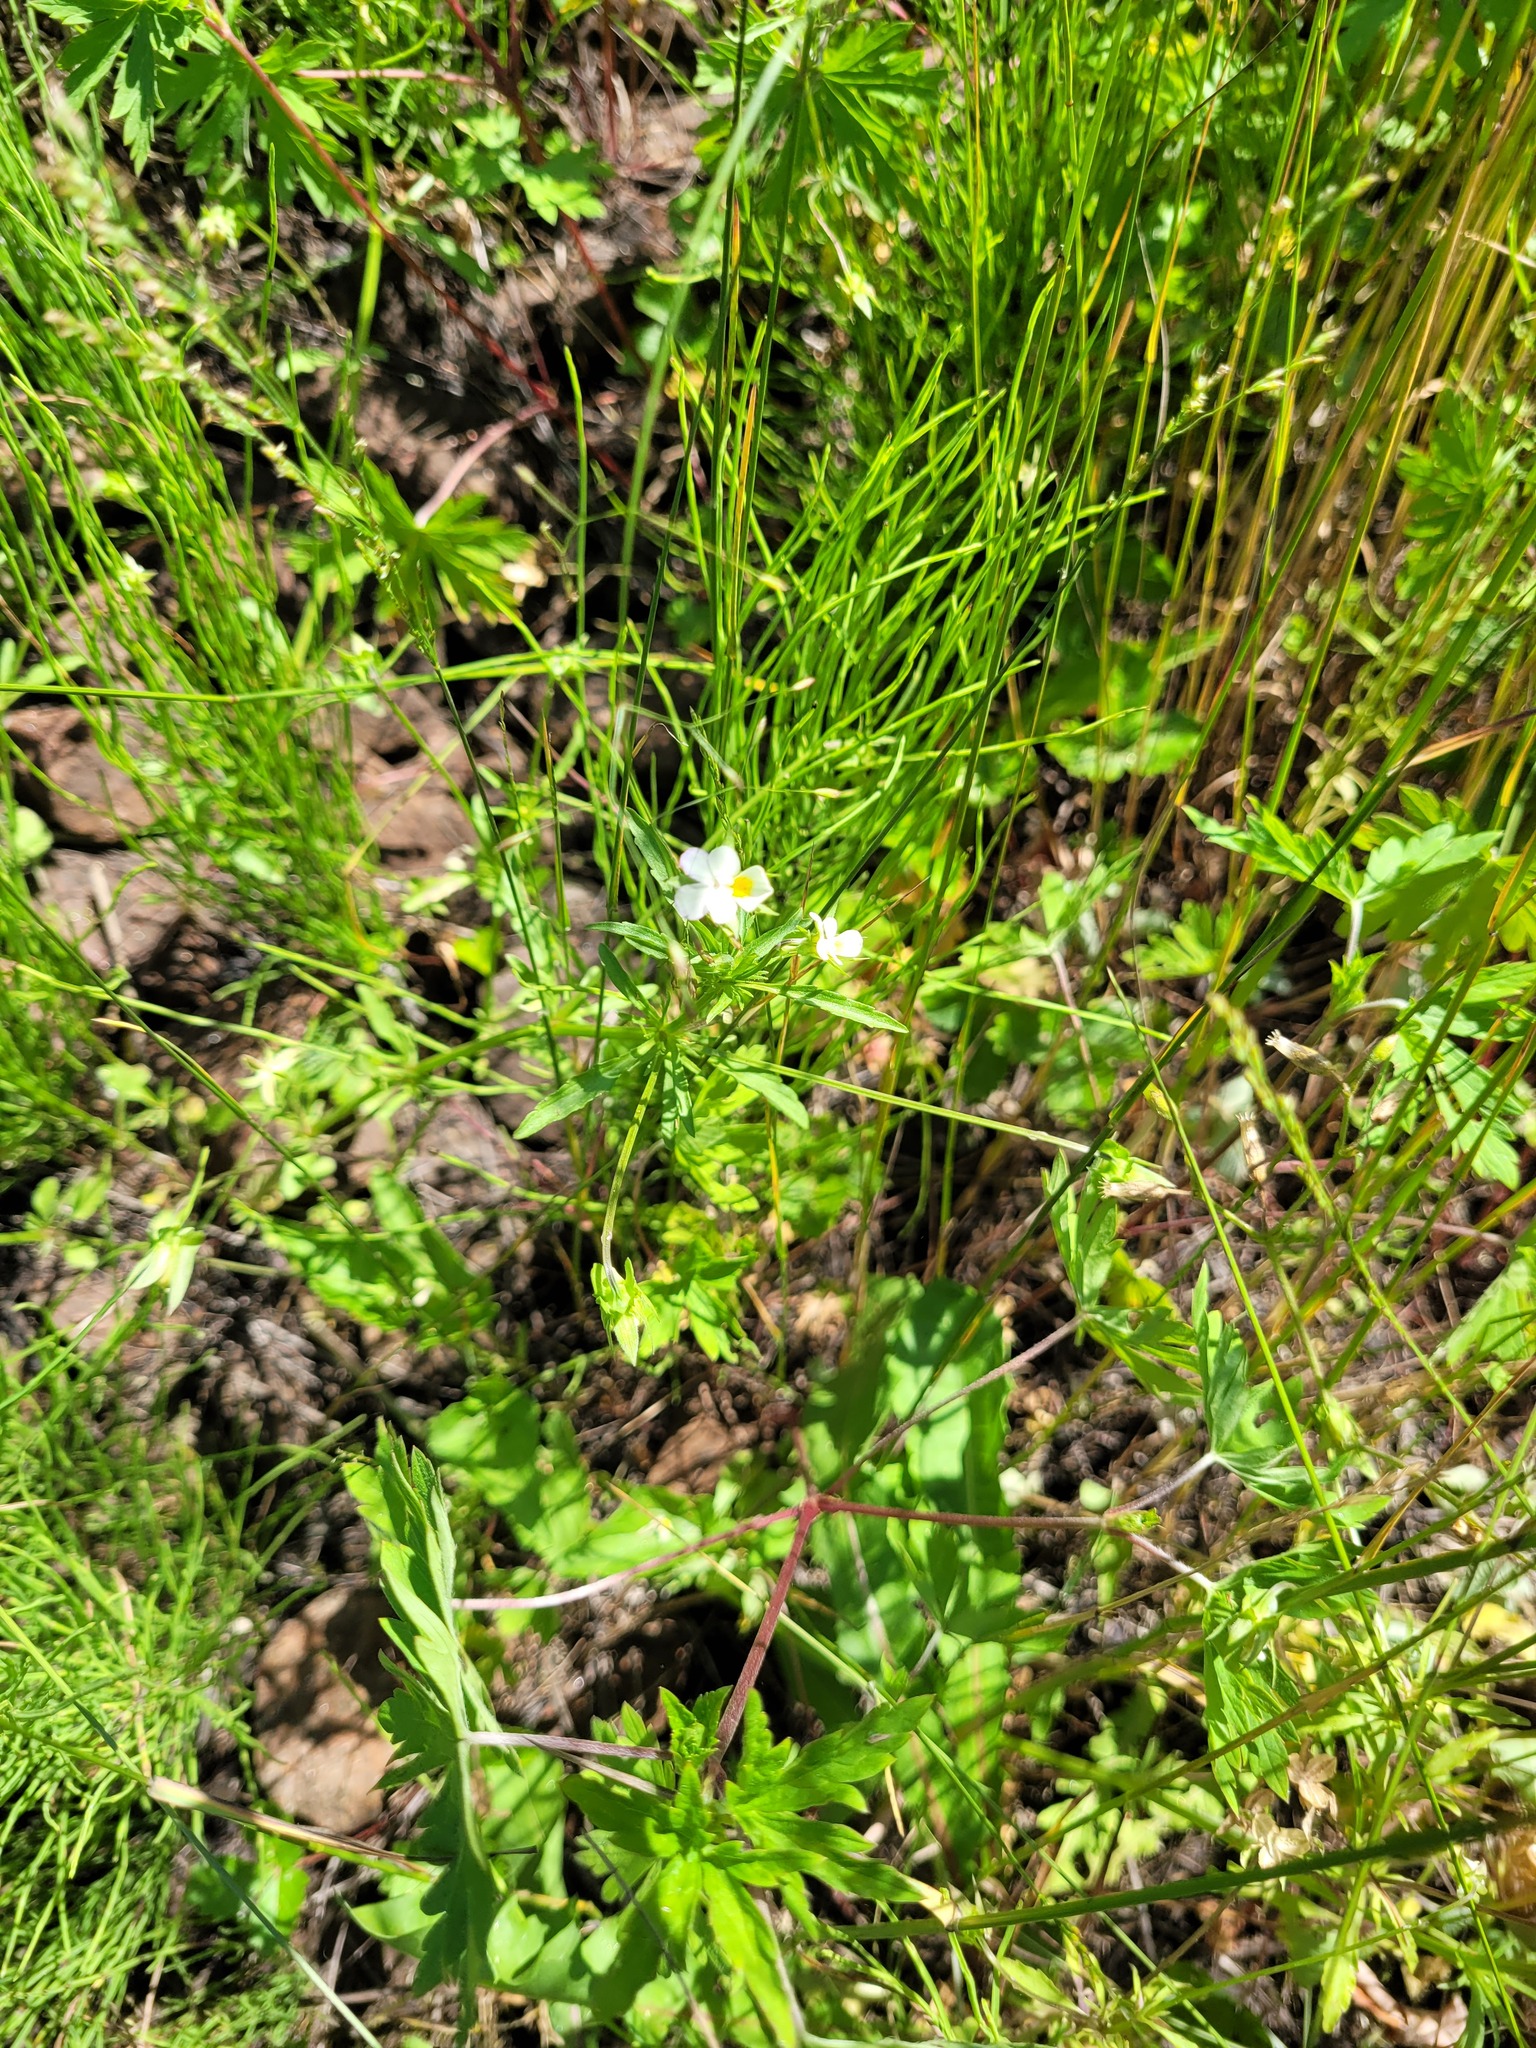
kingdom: Plantae
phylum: Tracheophyta
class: Magnoliopsida
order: Malpighiales
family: Violaceae
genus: Viola
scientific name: Viola arvensis
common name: Field pansy
